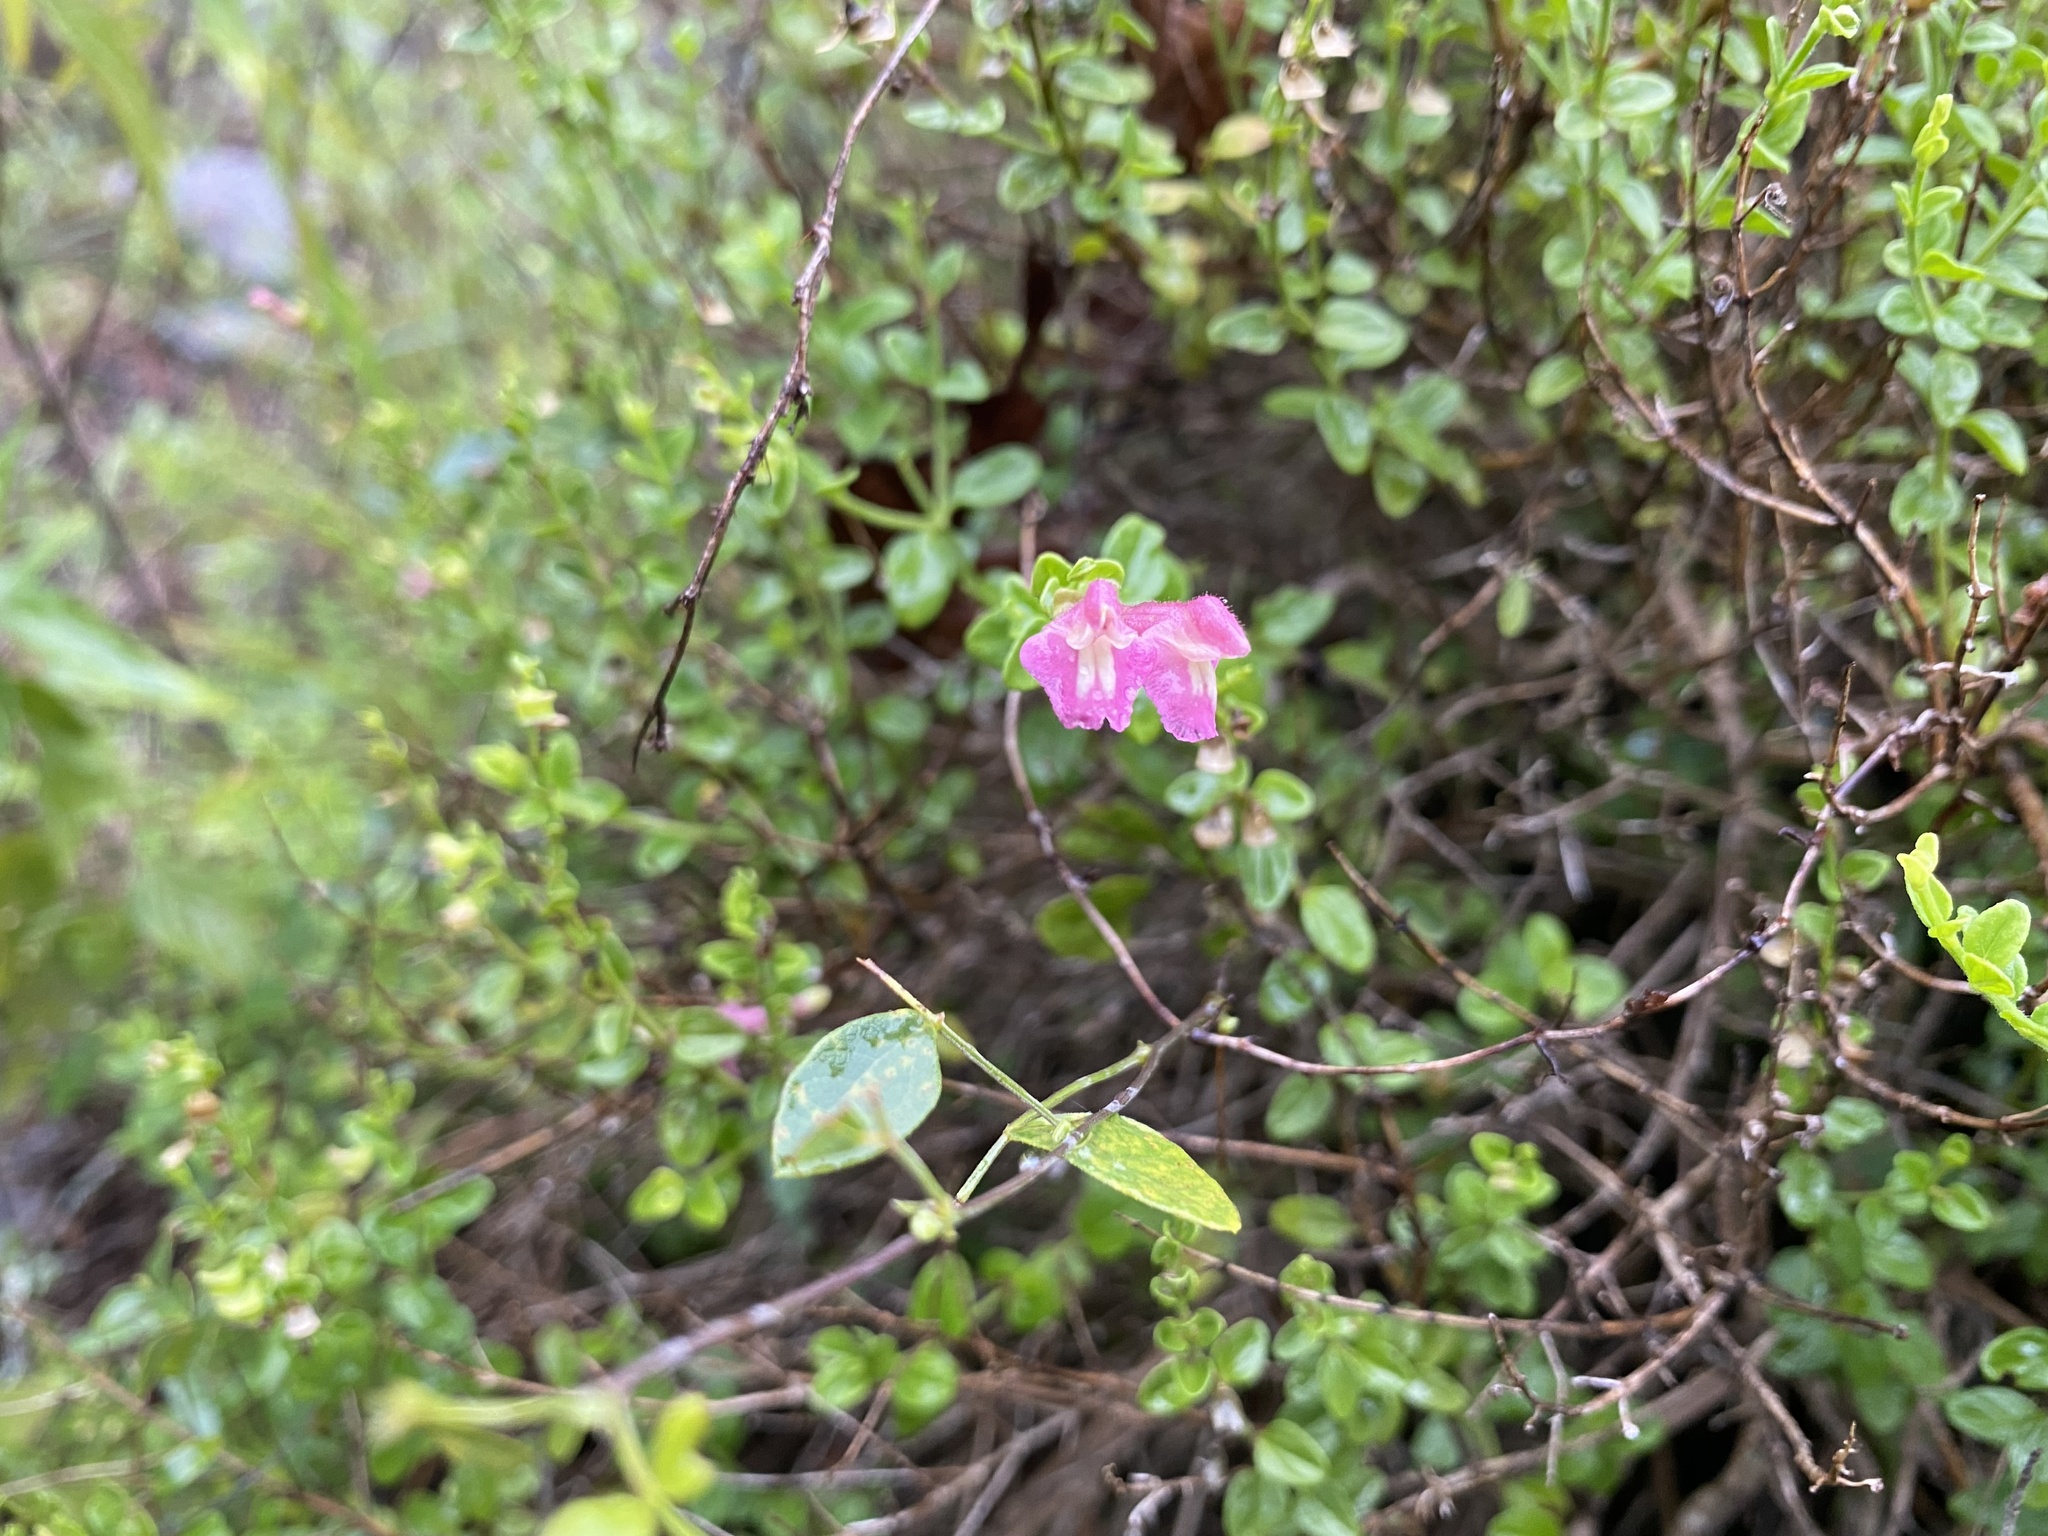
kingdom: Plantae
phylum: Tracheophyta
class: Magnoliopsida
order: Lamiales
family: Lamiaceae
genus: Scutellaria
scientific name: Scutellaria suffrutescens
